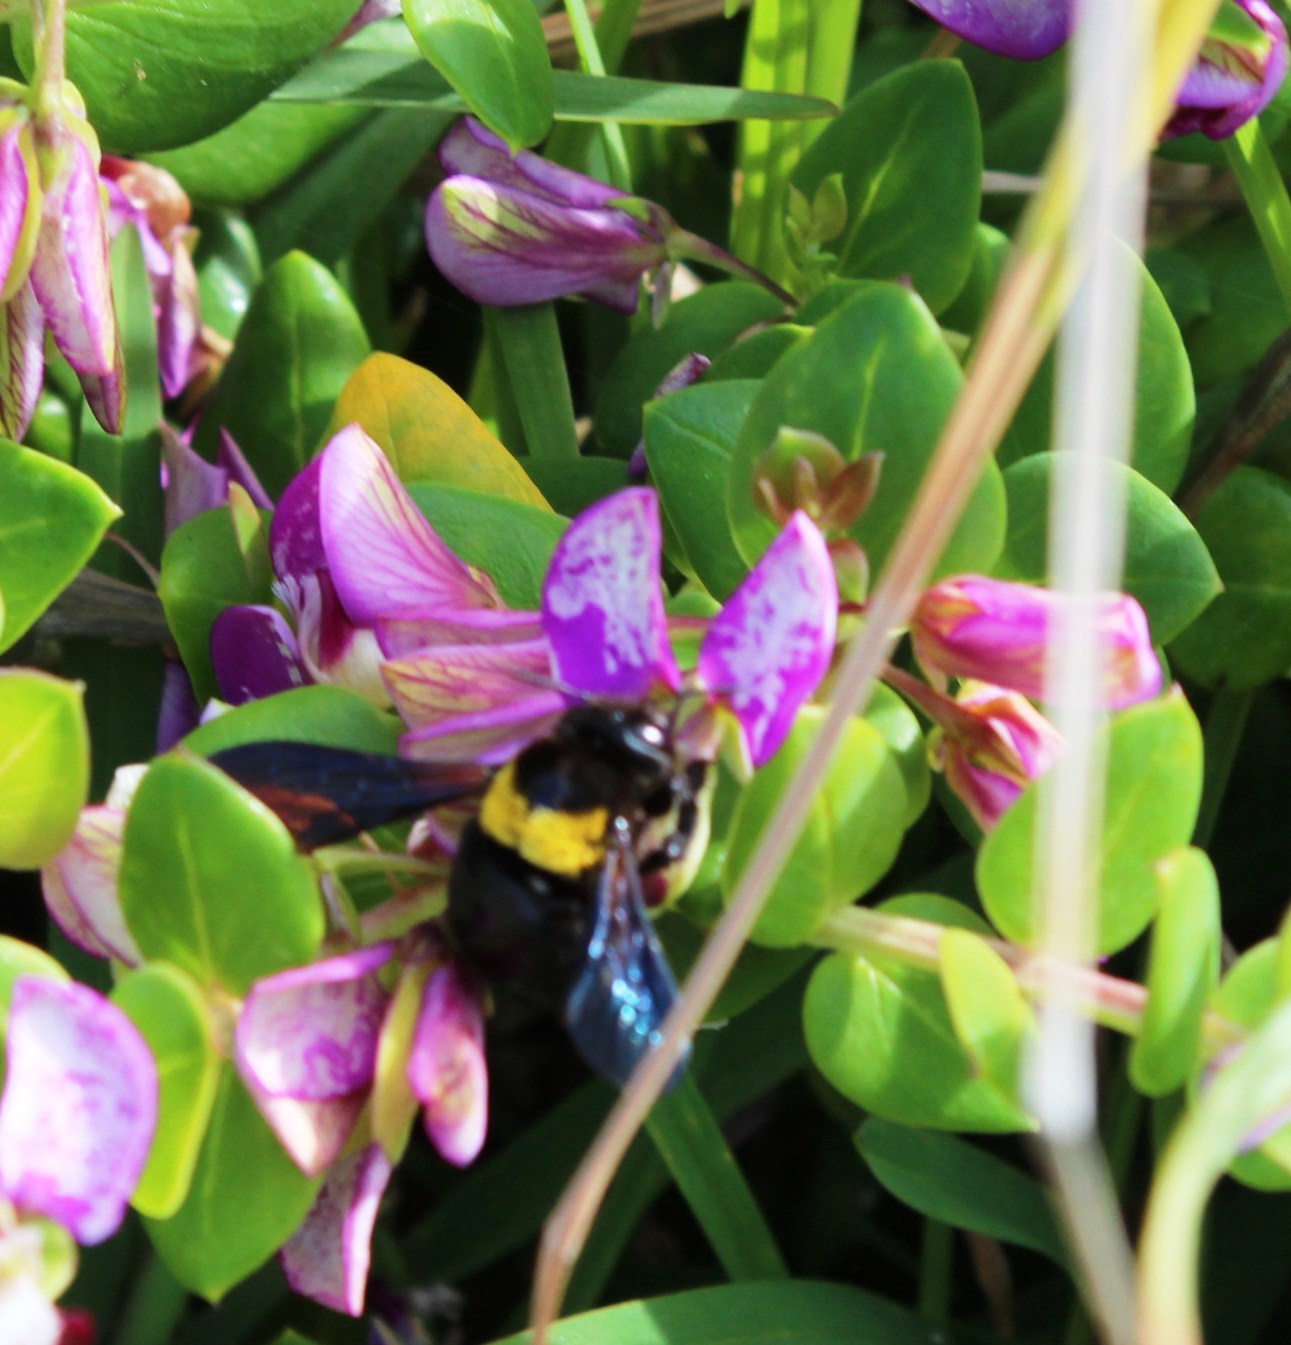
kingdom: Animalia
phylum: Arthropoda
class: Insecta
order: Hymenoptera
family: Apidae
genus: Xylocopa
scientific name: Xylocopa flavicollis
